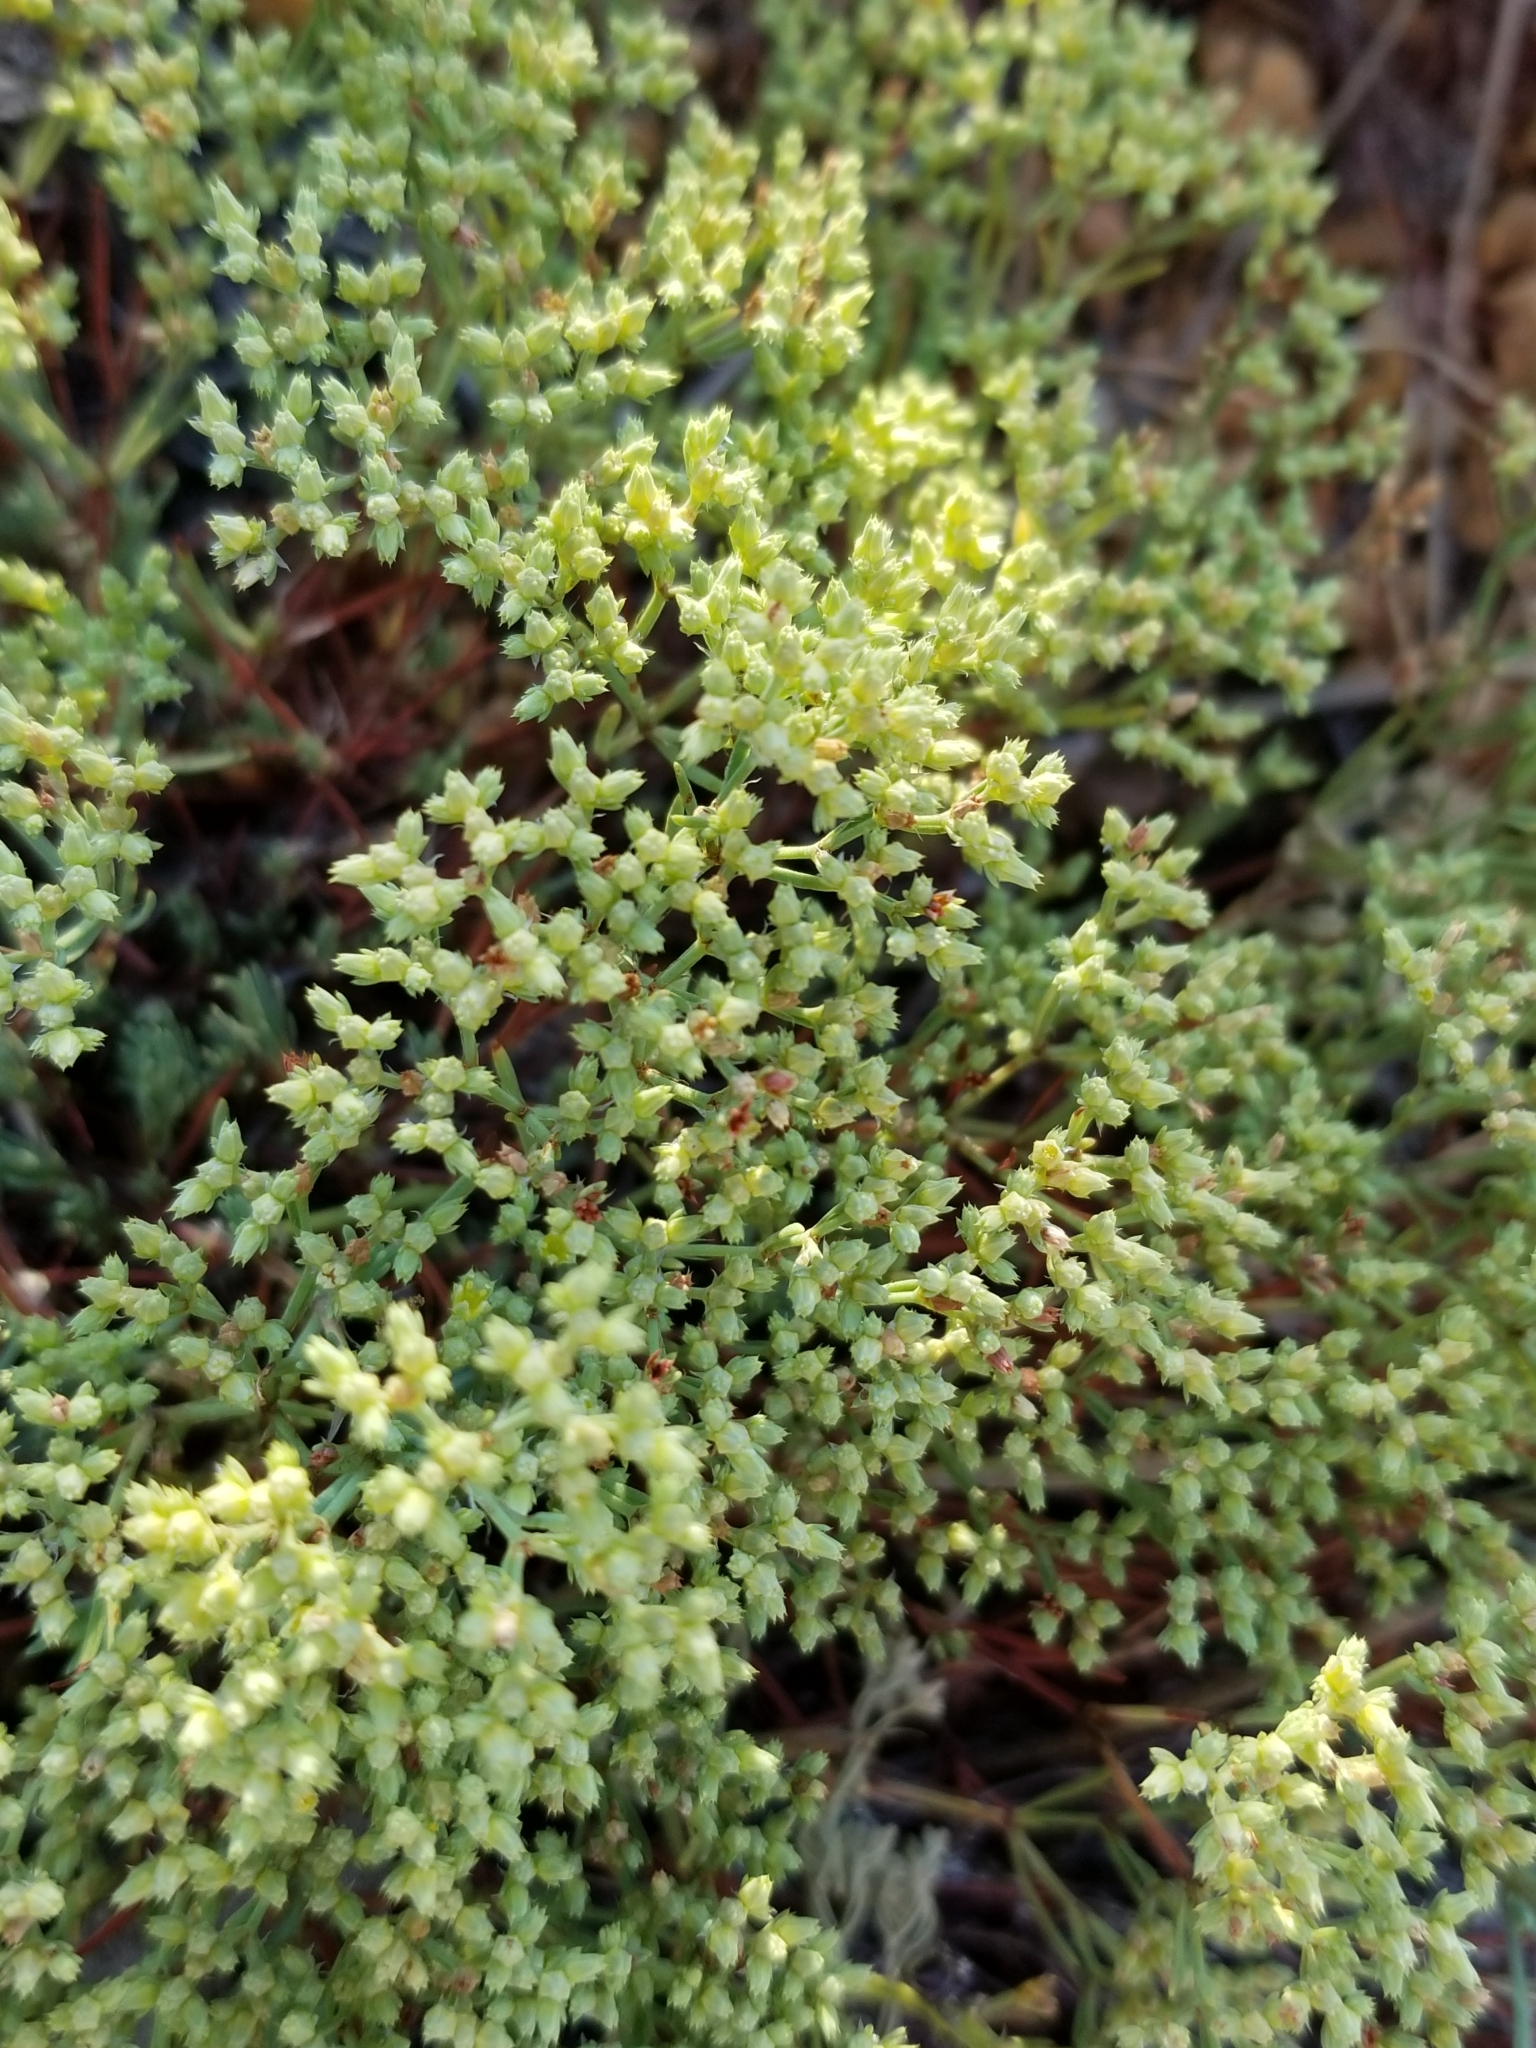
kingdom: Plantae
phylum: Tracheophyta
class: Magnoliopsida
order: Caryophyllales
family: Caryophyllaceae
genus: Paronychia
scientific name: Paronychia jamesii
